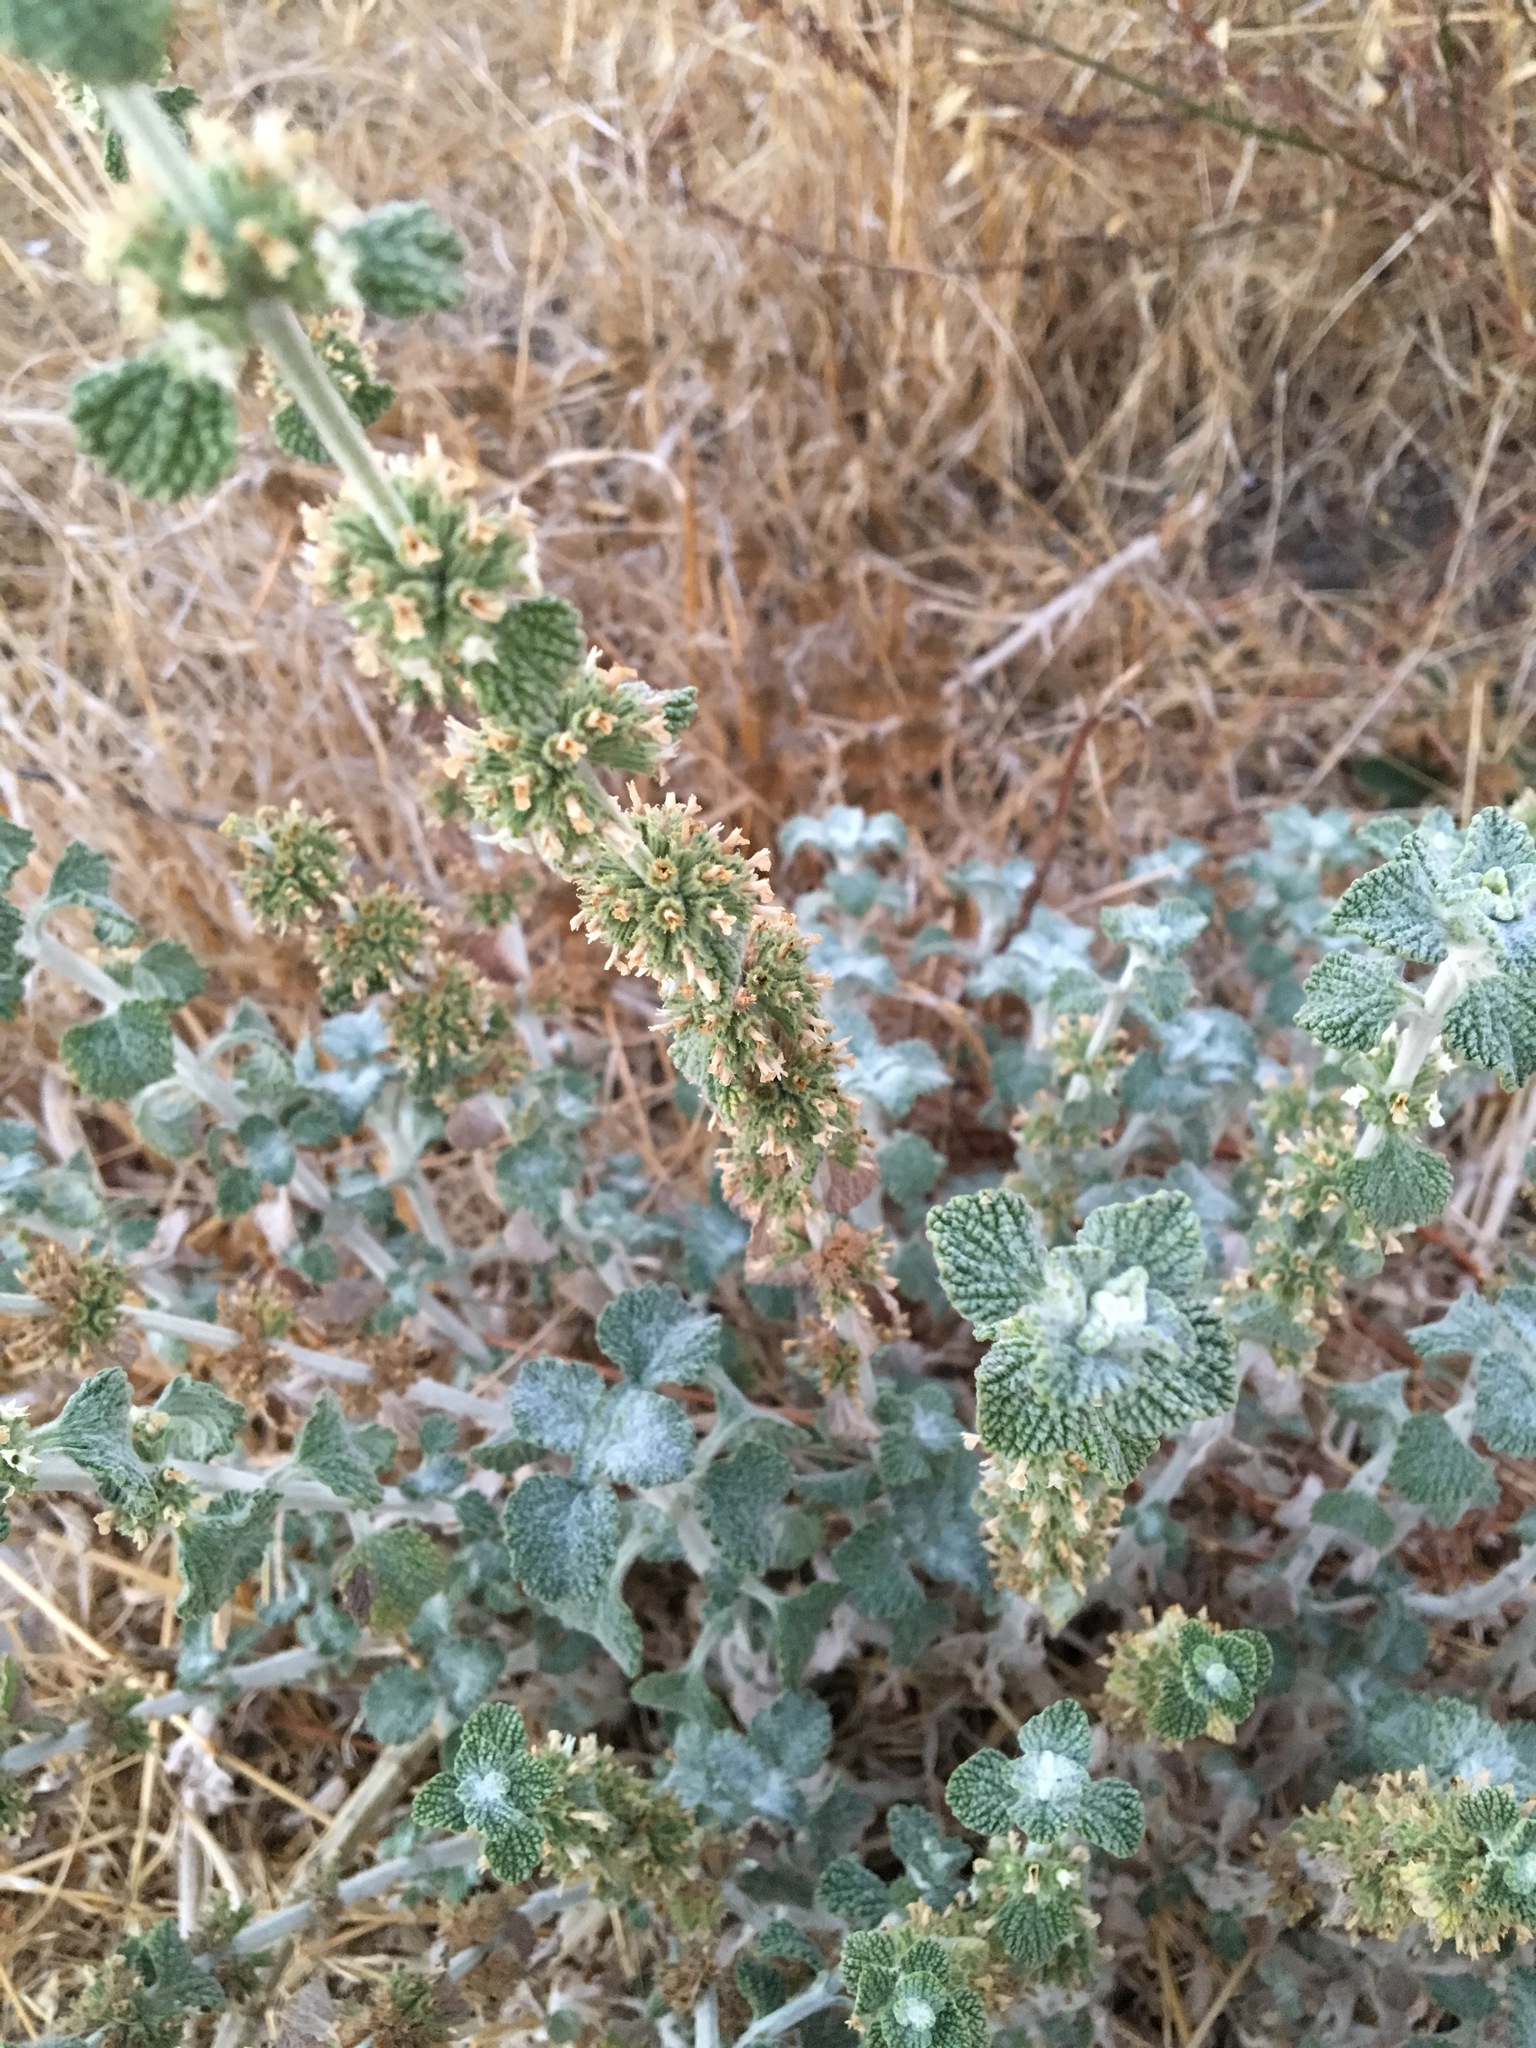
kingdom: Plantae
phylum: Tracheophyta
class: Magnoliopsida
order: Lamiales
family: Lamiaceae
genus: Marrubium
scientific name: Marrubium vulgare
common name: Horehound
